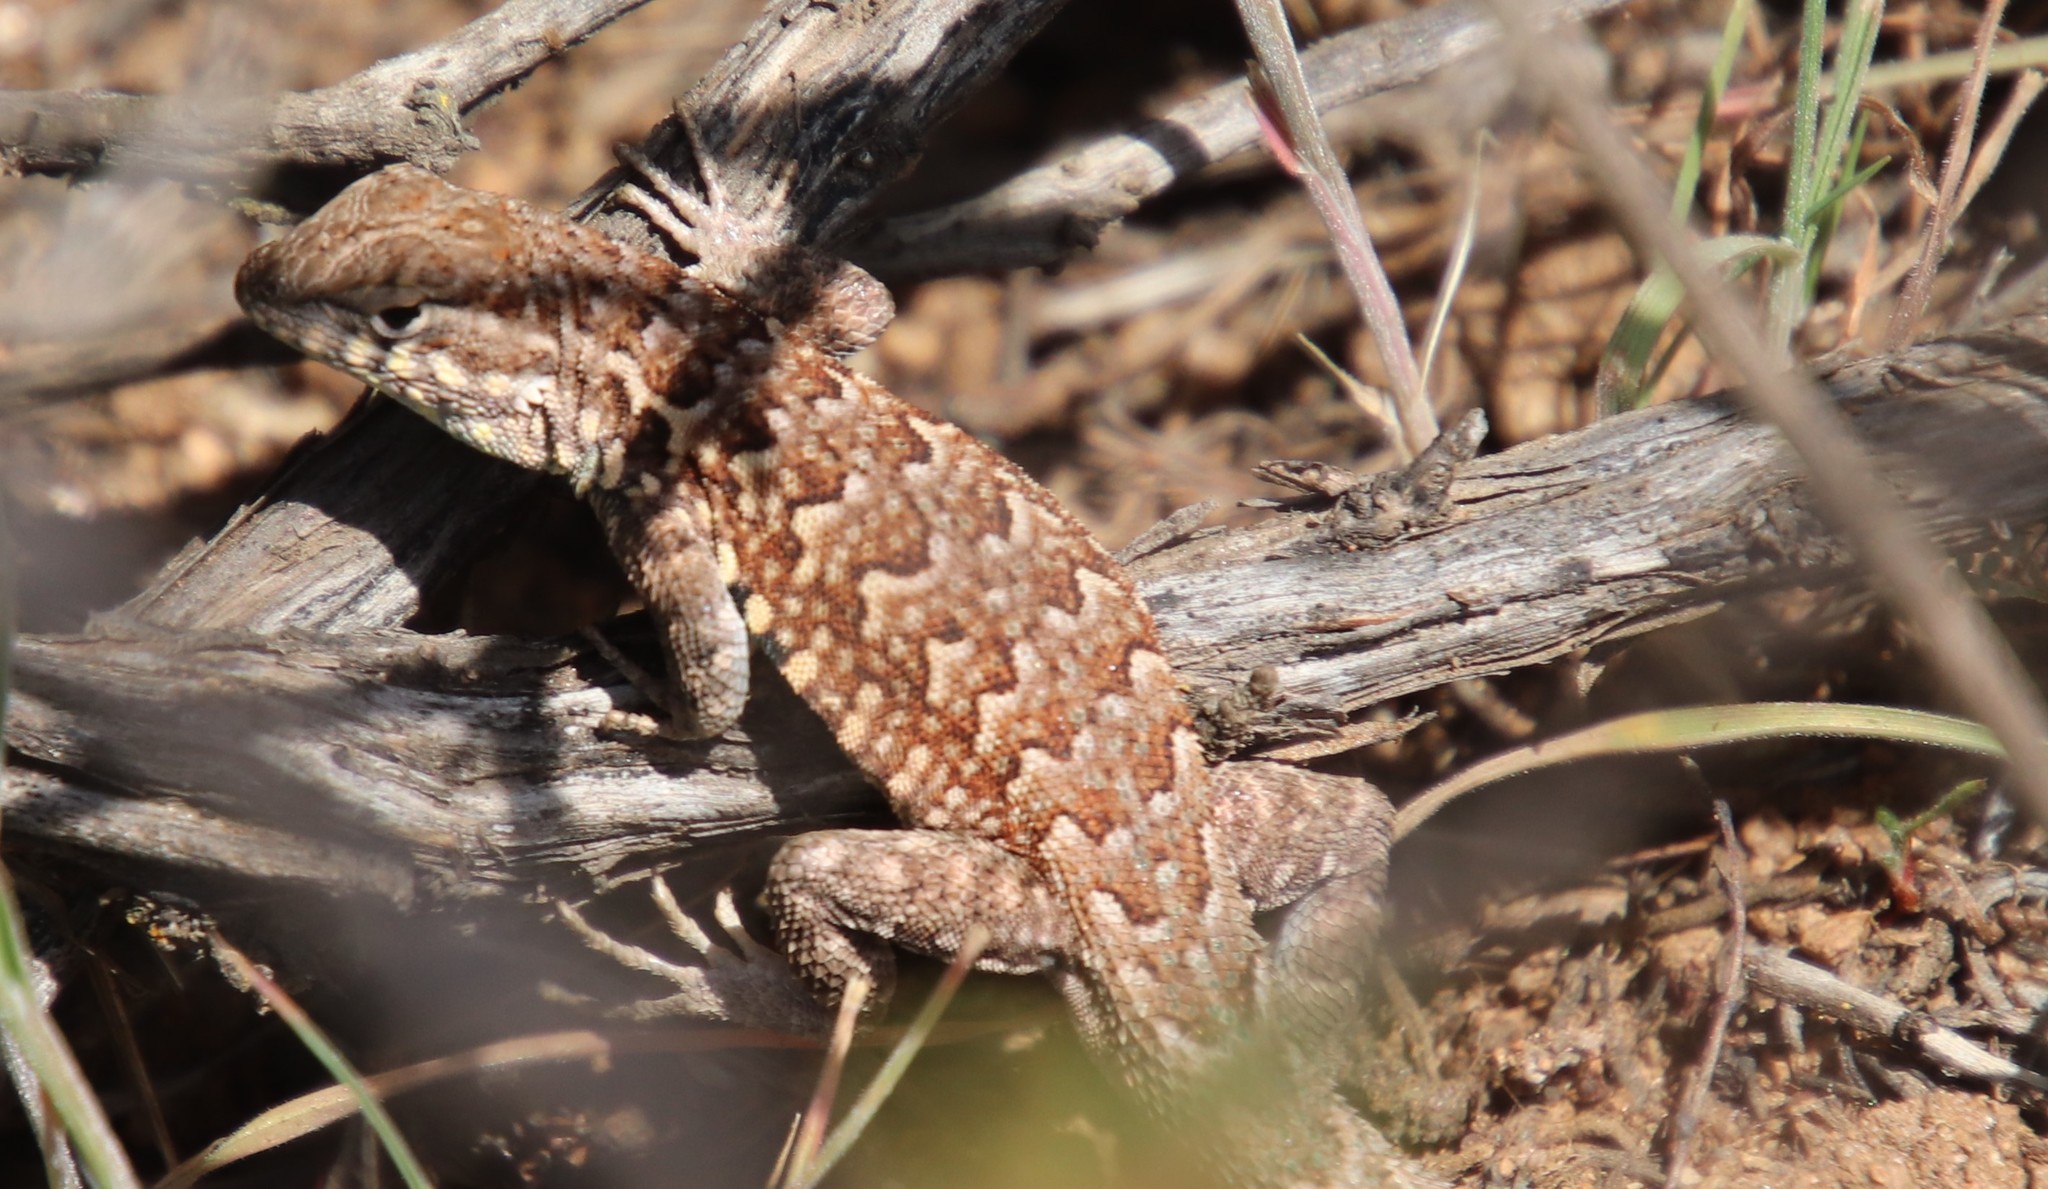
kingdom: Animalia
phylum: Chordata
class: Squamata
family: Phrynosomatidae
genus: Uta
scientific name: Uta stansburiana
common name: Side-blotched lizard
